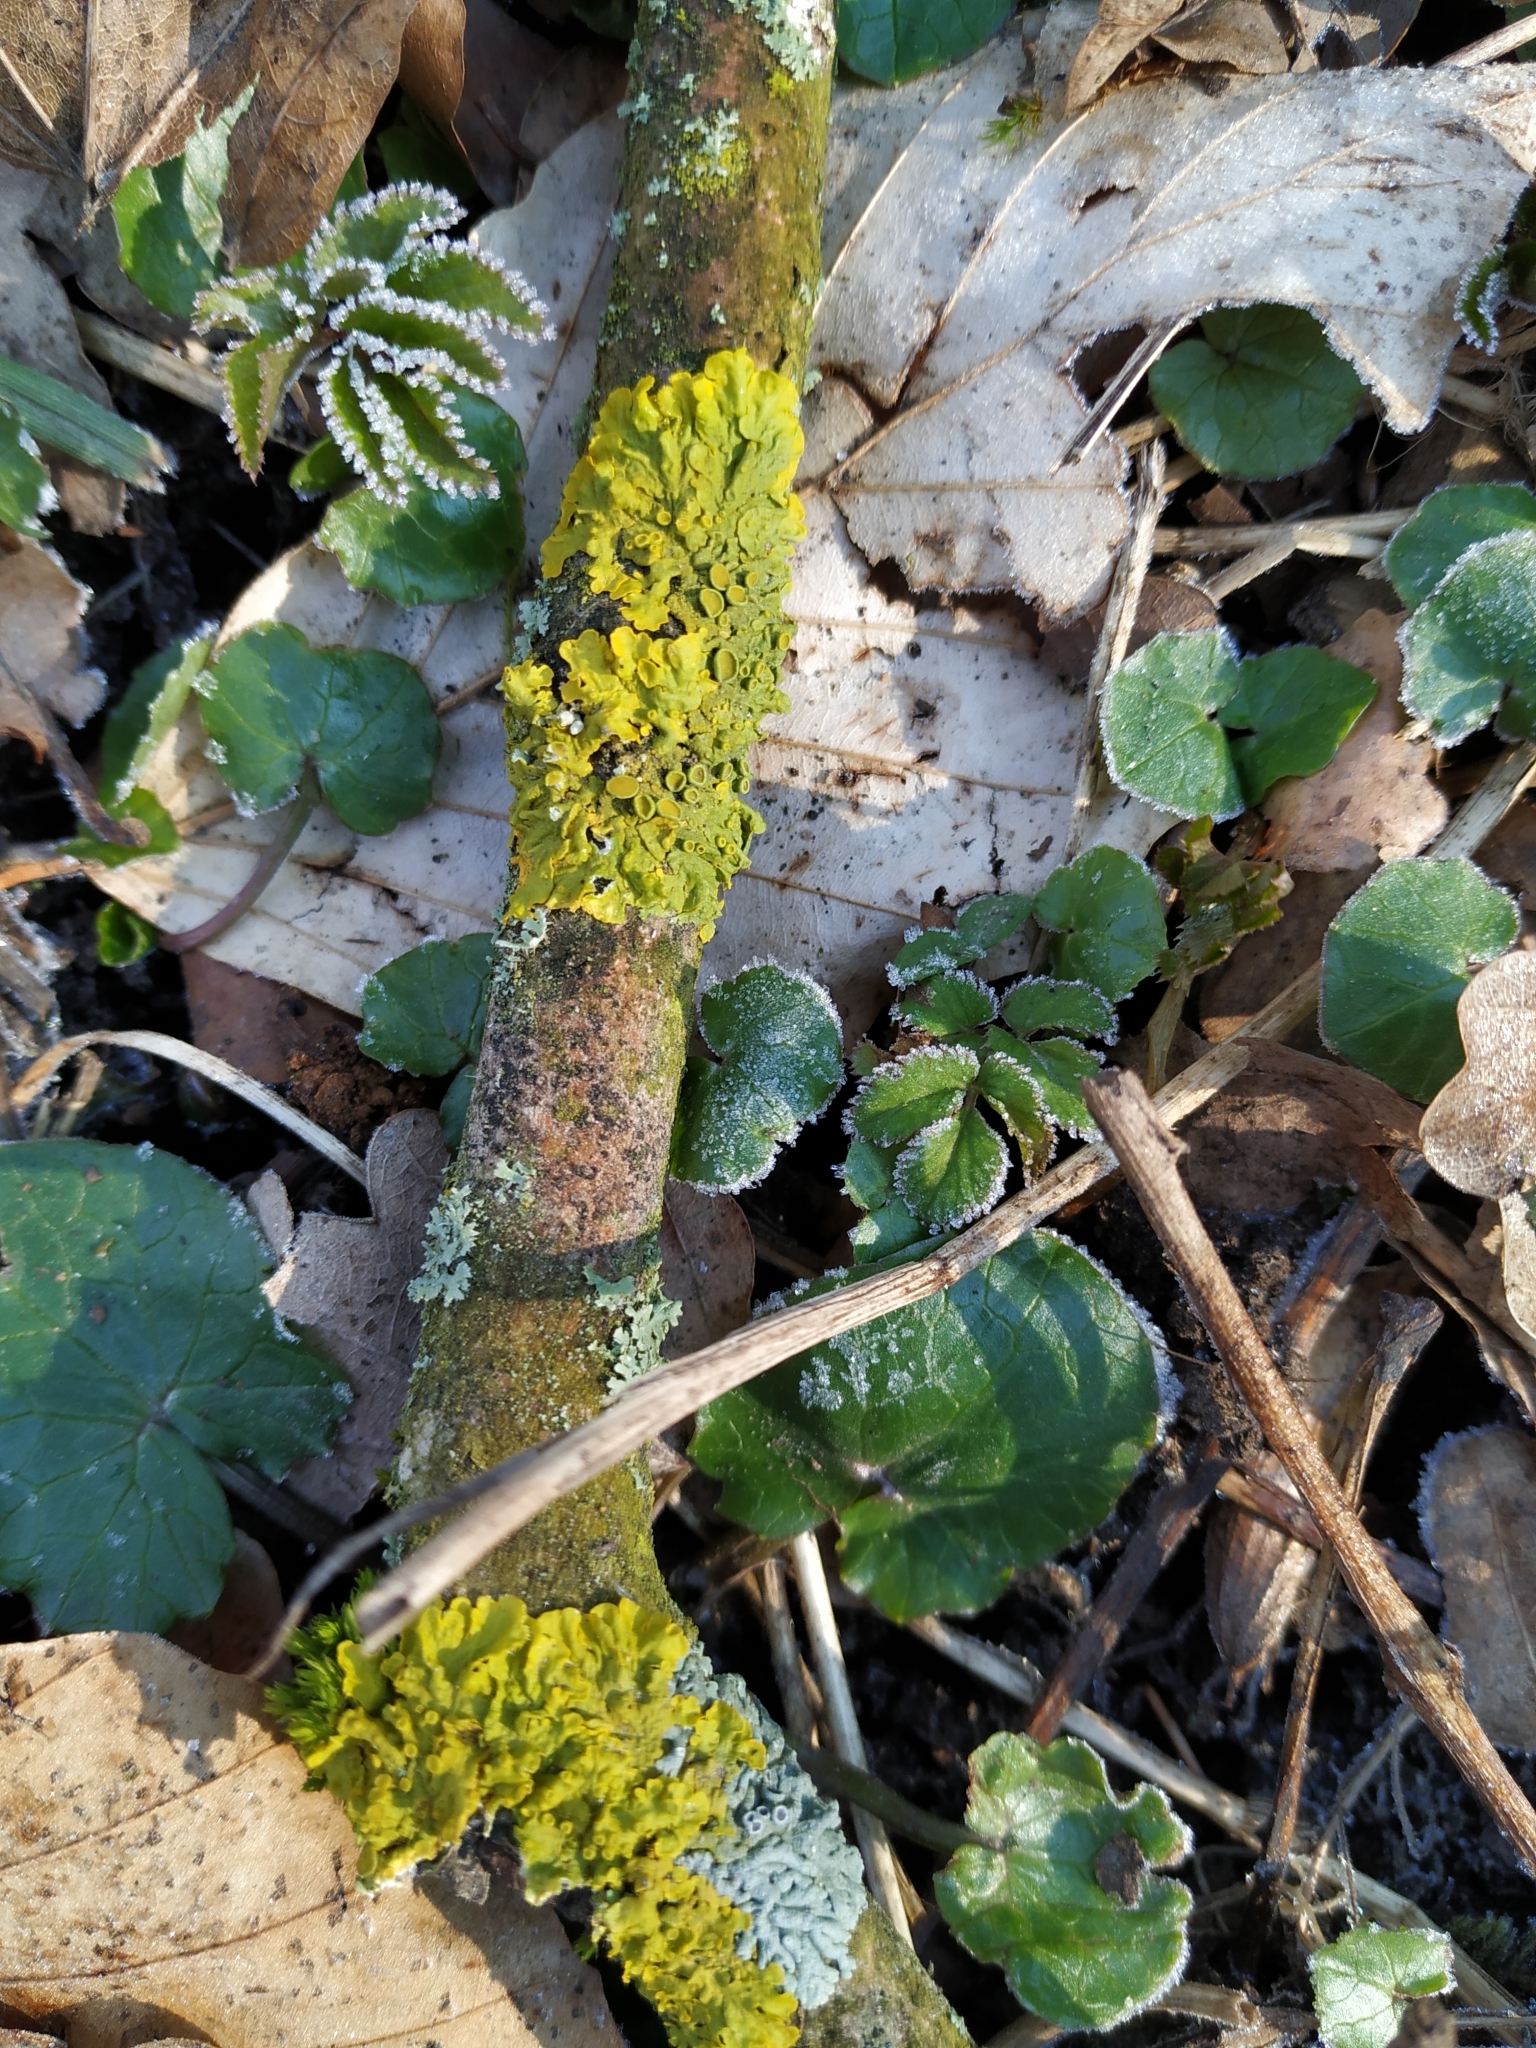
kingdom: Fungi
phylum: Ascomycota
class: Lecanoromycetes
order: Teloschistales
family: Teloschistaceae
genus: Xanthoria
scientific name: Xanthoria parietina
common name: Common orange lichen
